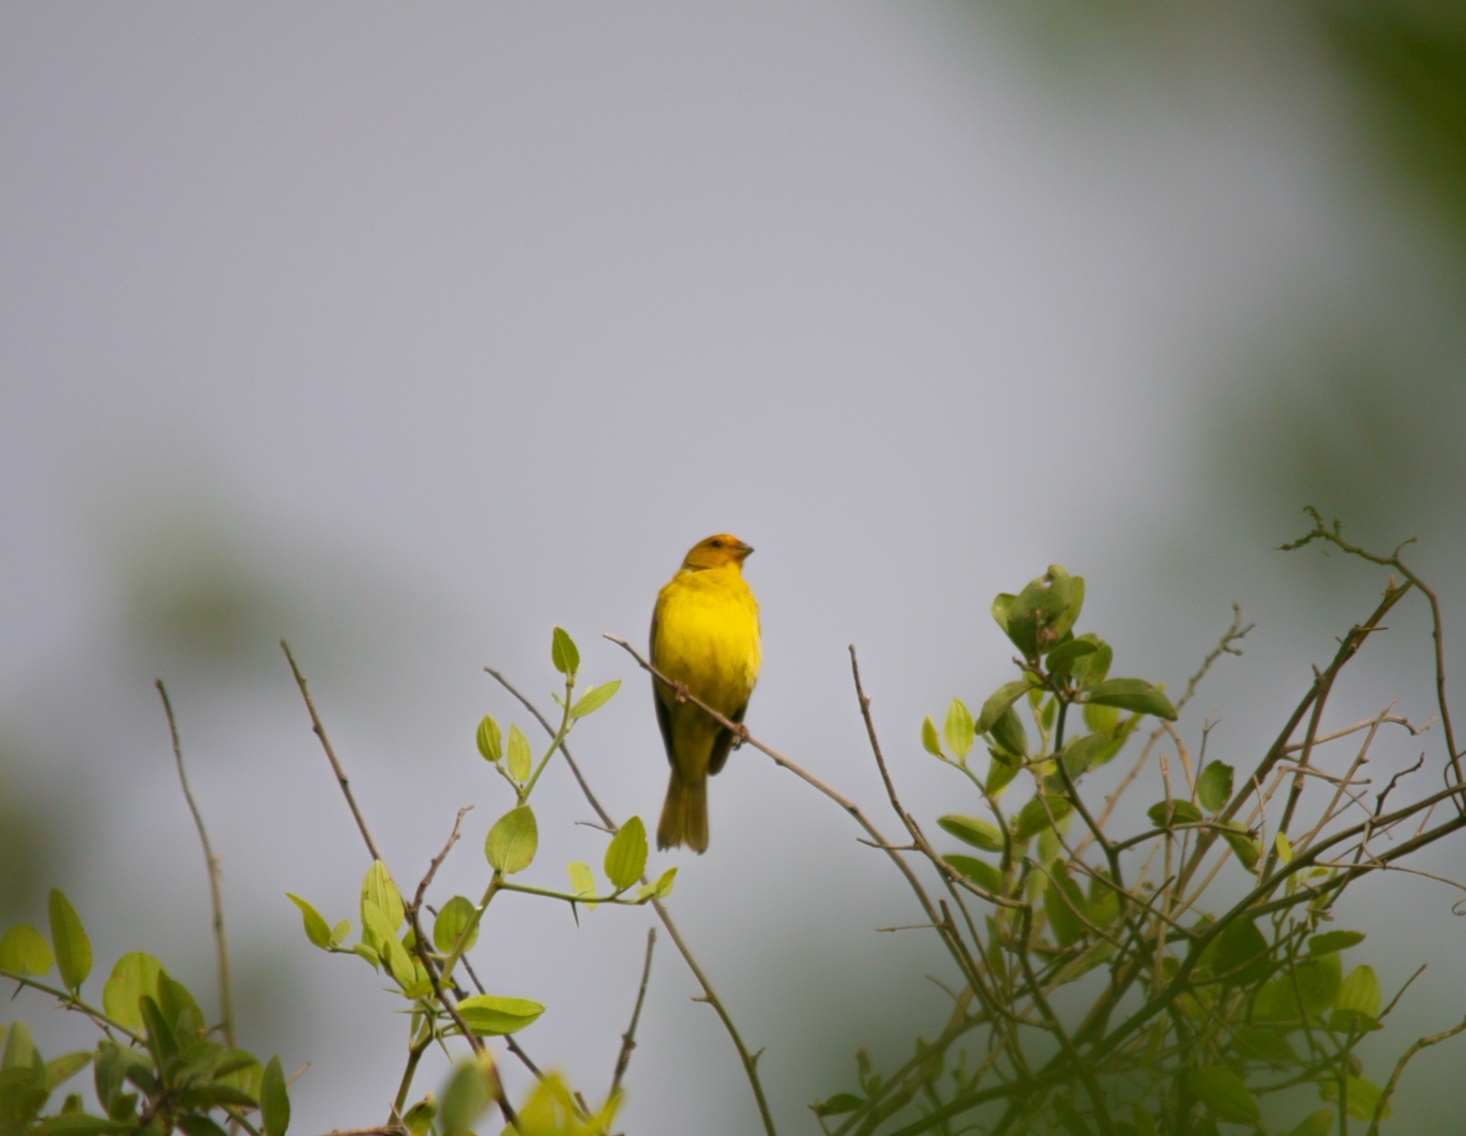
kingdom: Animalia
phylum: Chordata
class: Aves
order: Passeriformes
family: Thraupidae
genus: Sicalis
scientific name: Sicalis flaveola
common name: Saffron finch
